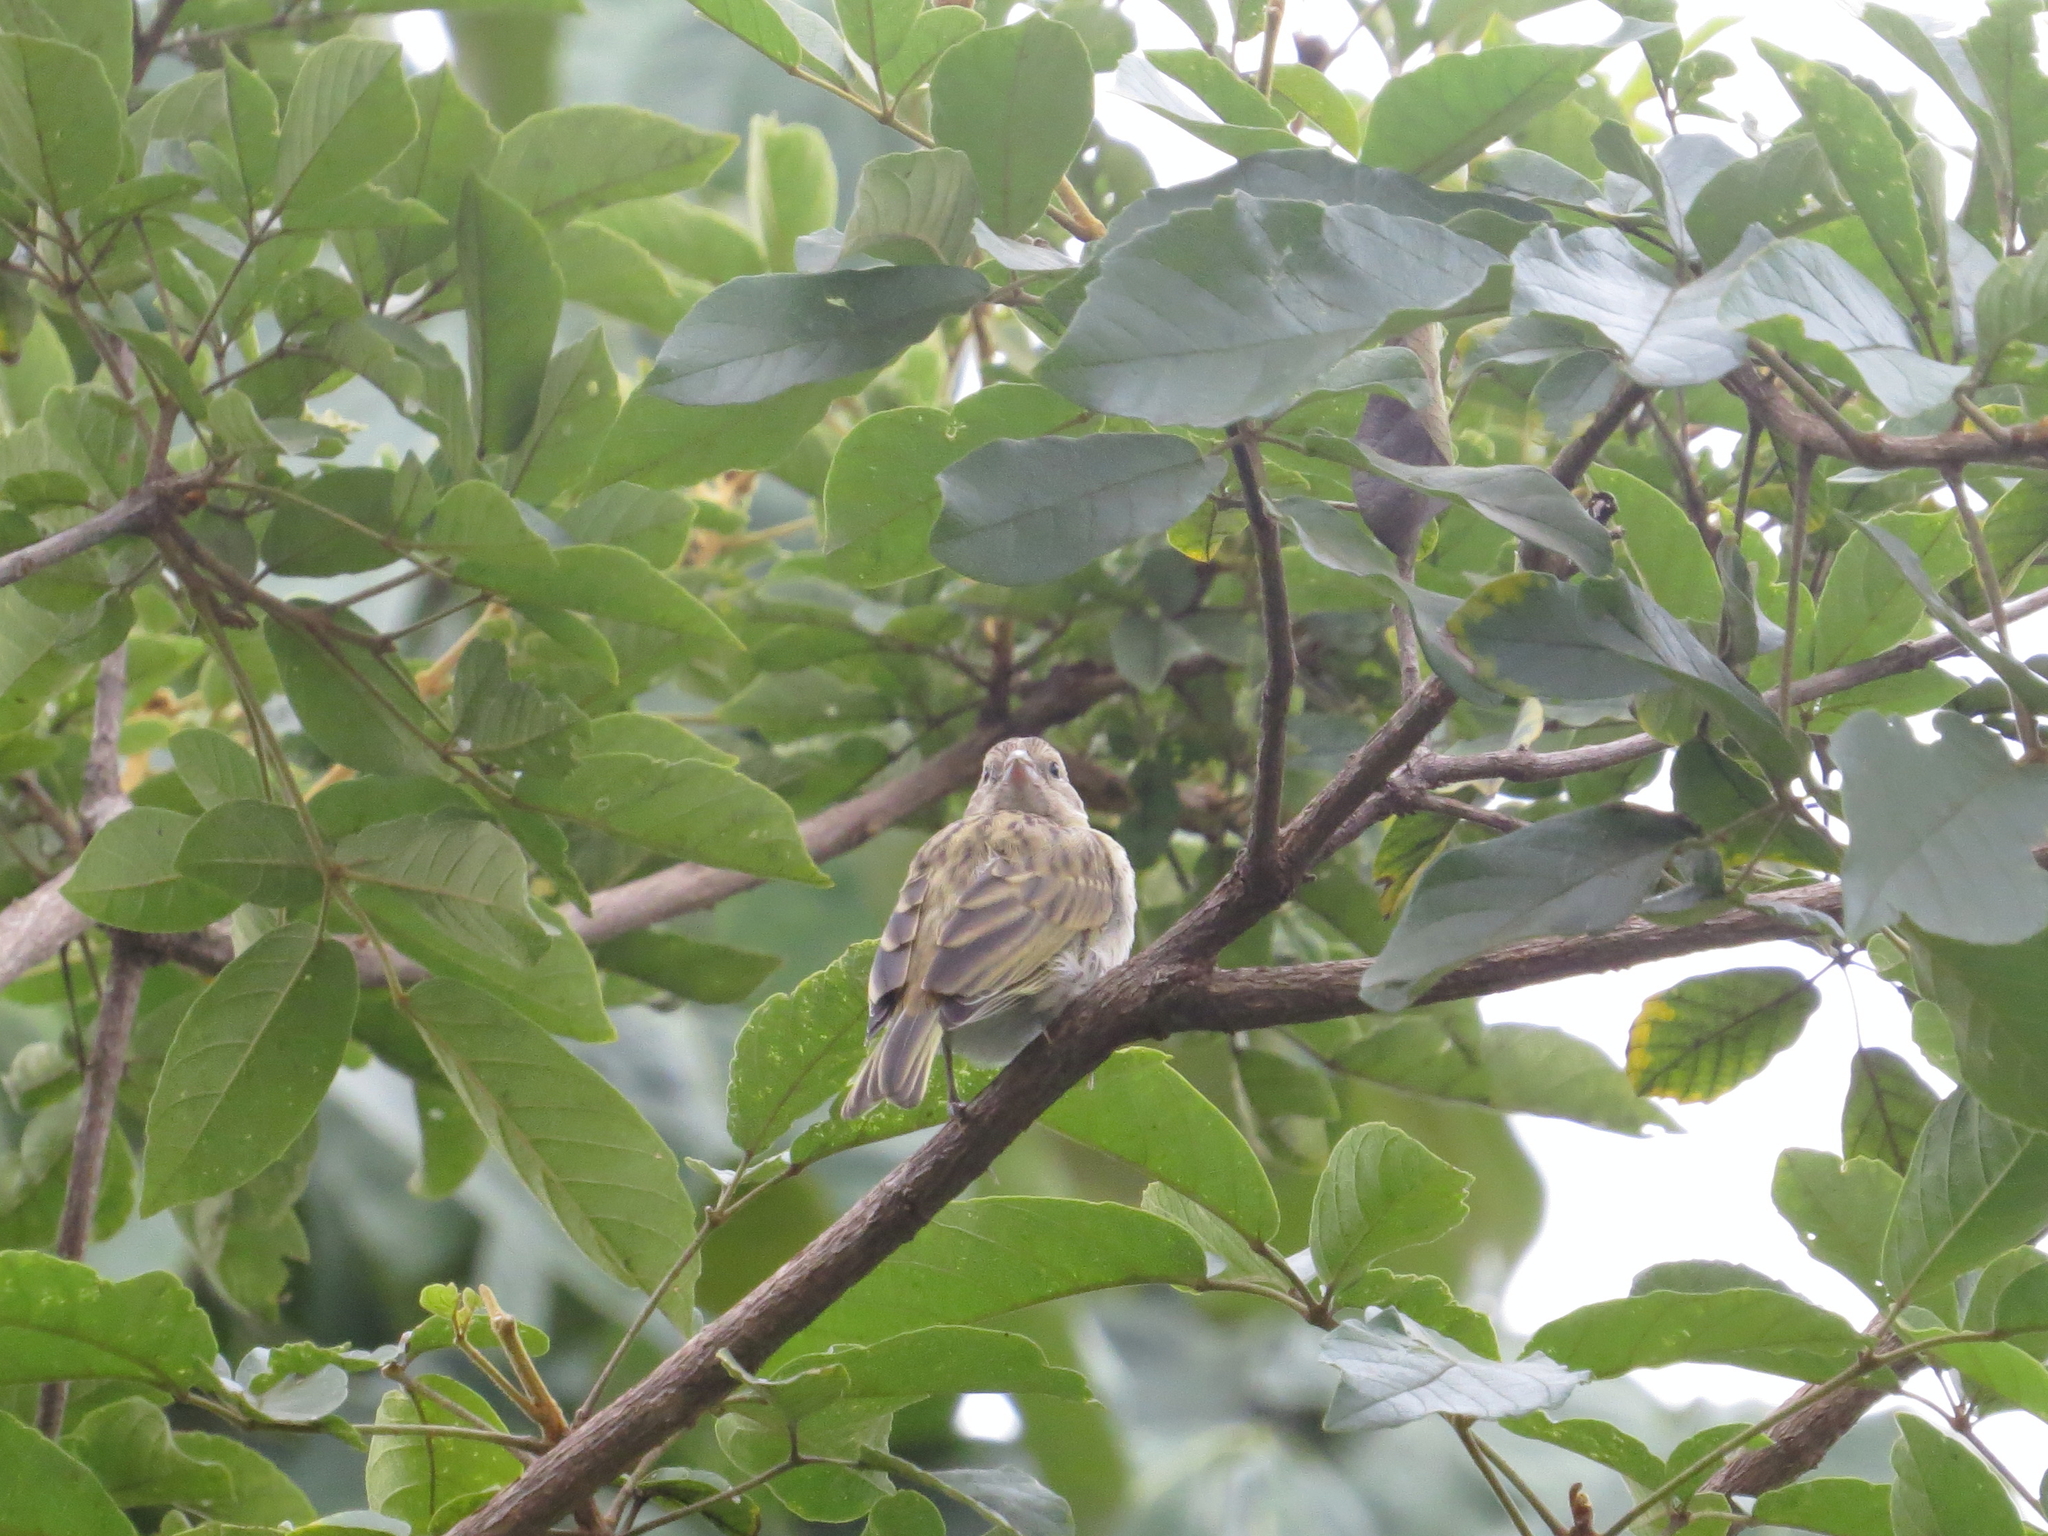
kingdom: Animalia
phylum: Chordata
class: Aves
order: Passeriformes
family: Thraupidae
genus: Sicalis
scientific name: Sicalis flaveola
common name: Saffron finch
